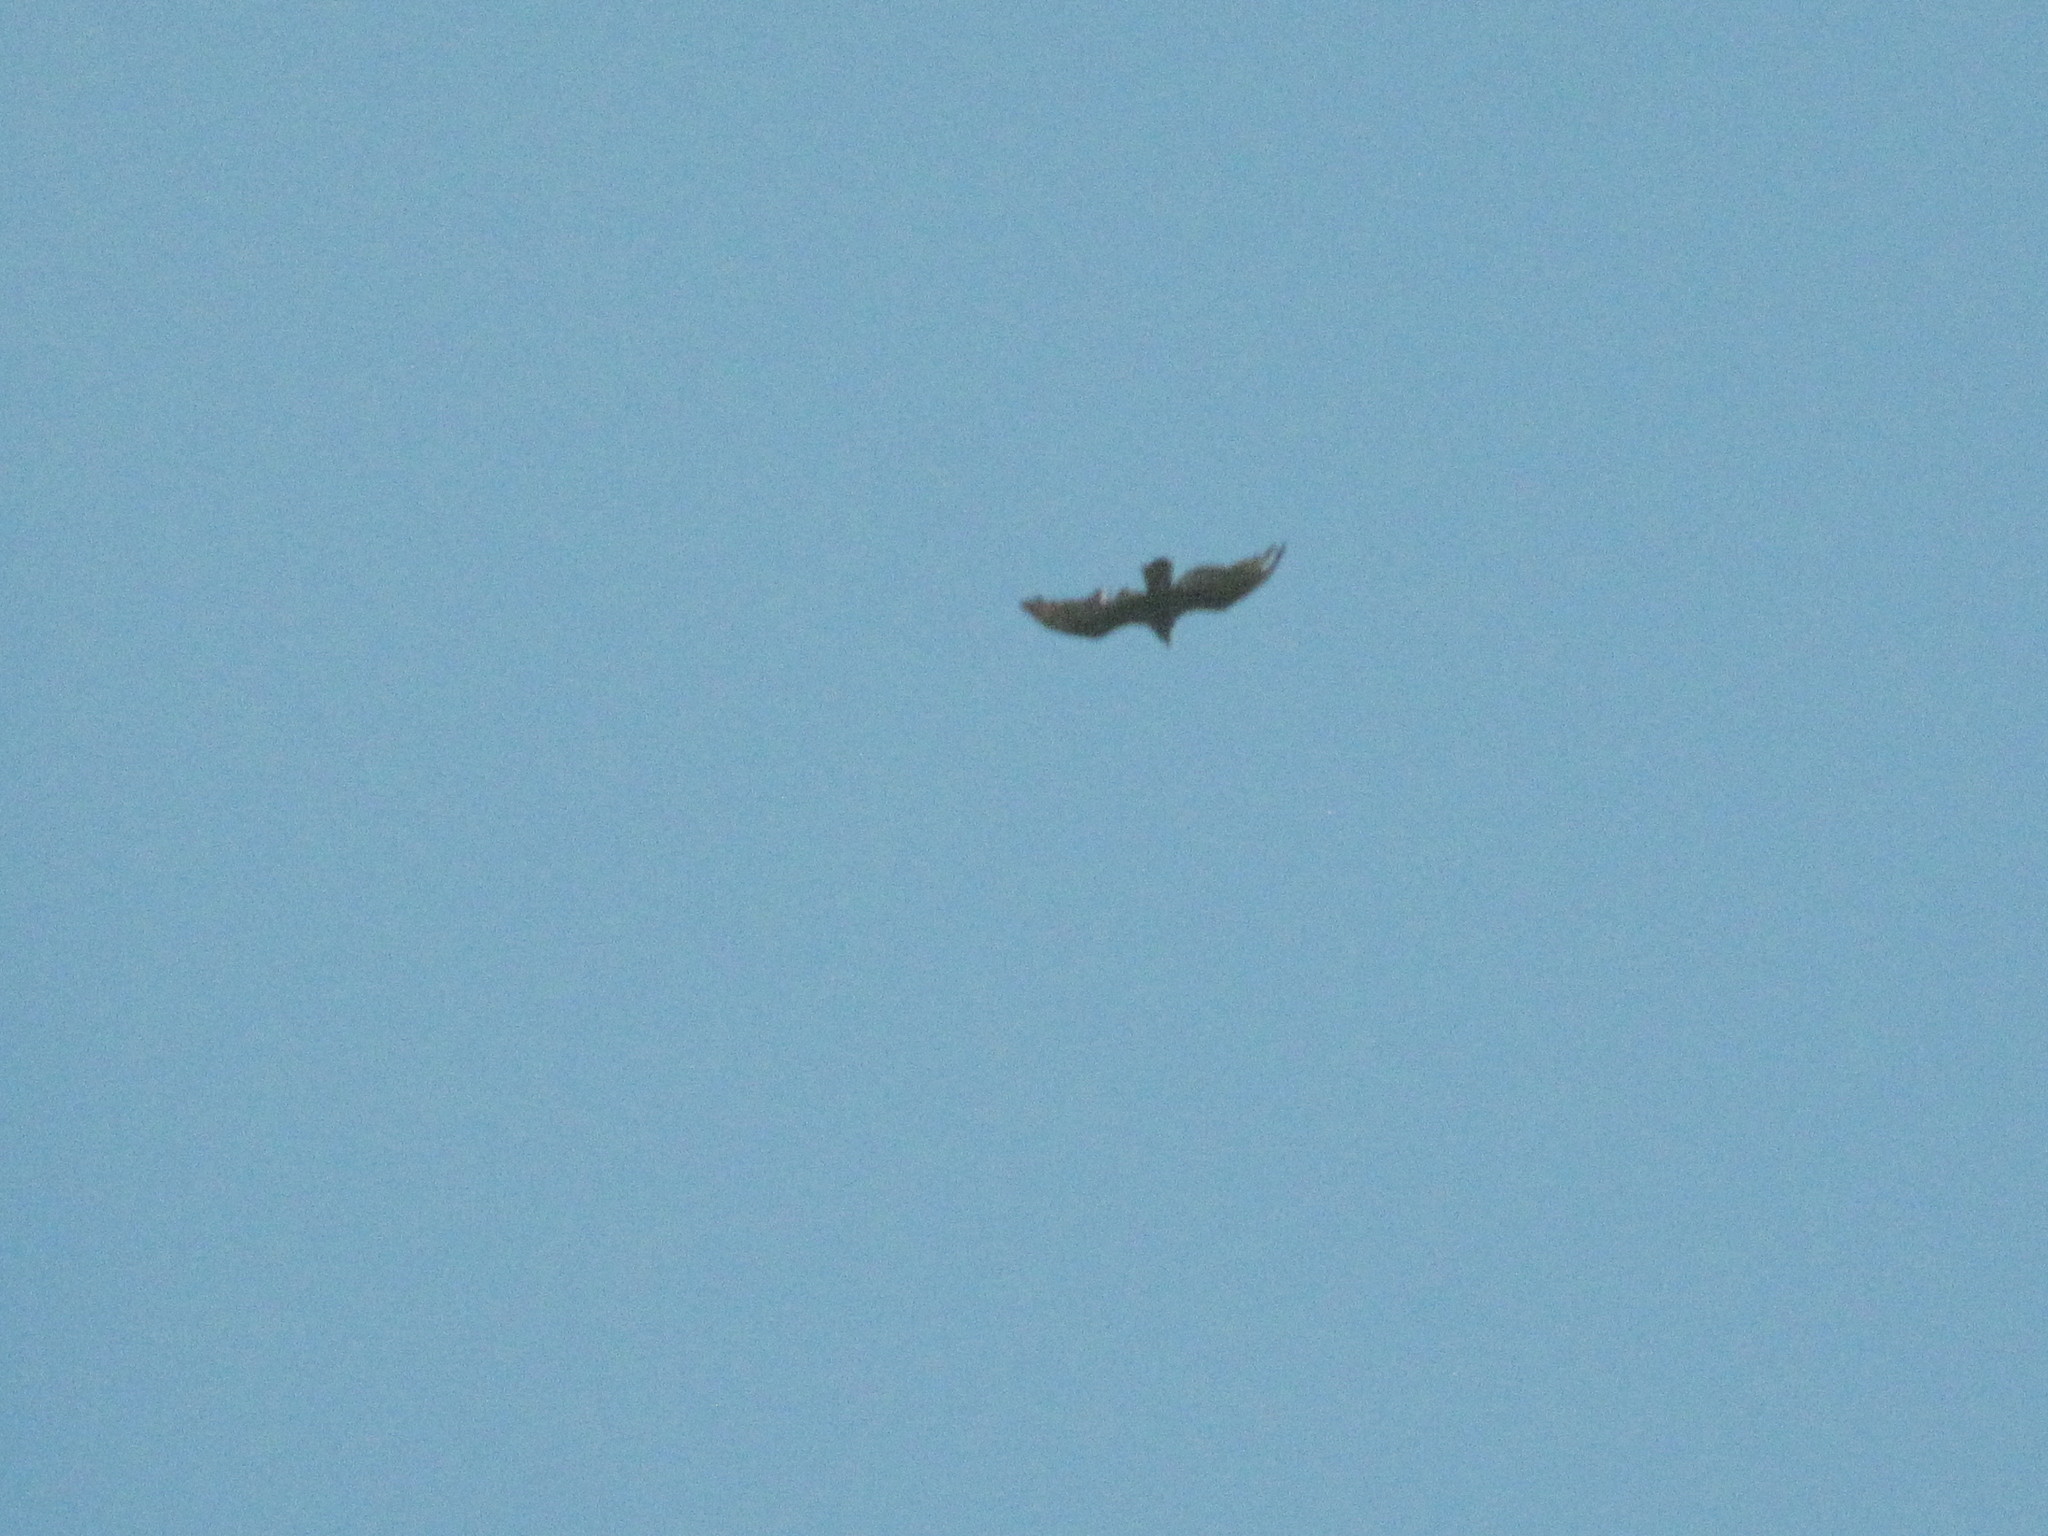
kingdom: Animalia
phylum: Chordata
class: Aves
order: Accipitriformes
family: Cathartidae
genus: Cathartes
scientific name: Cathartes aura
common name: Turkey vulture
